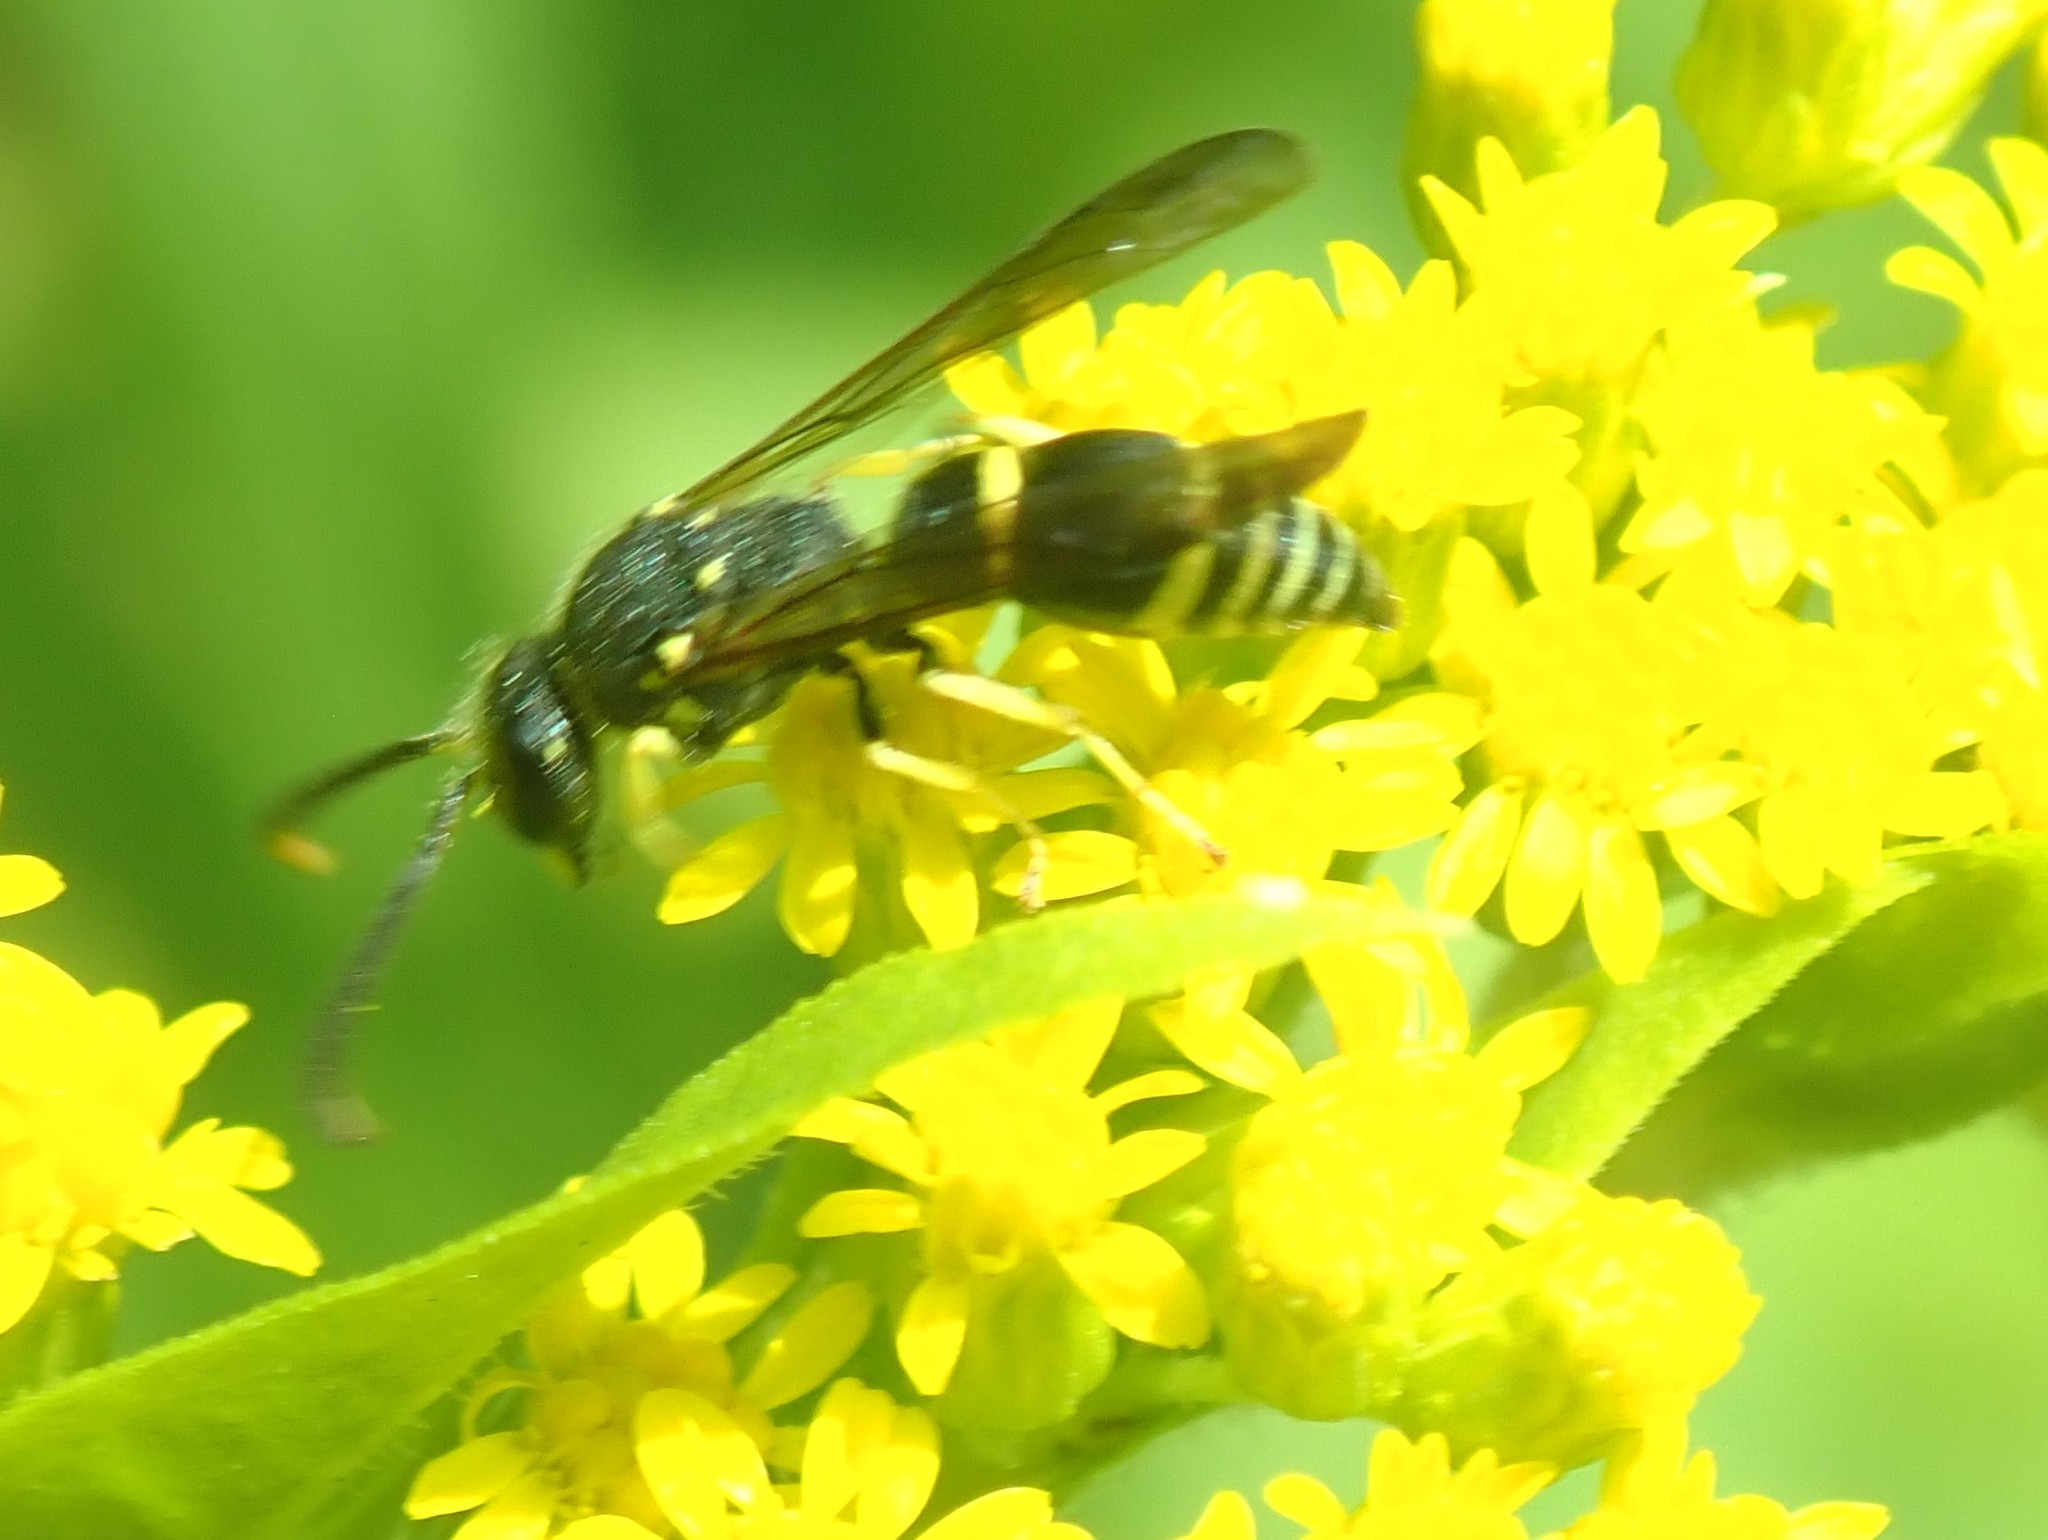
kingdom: Animalia
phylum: Arthropoda
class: Insecta
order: Hymenoptera
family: Vespidae
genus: Ancistrocerus
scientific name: Ancistrocerus adiabatus
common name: Bramble mason wasp
